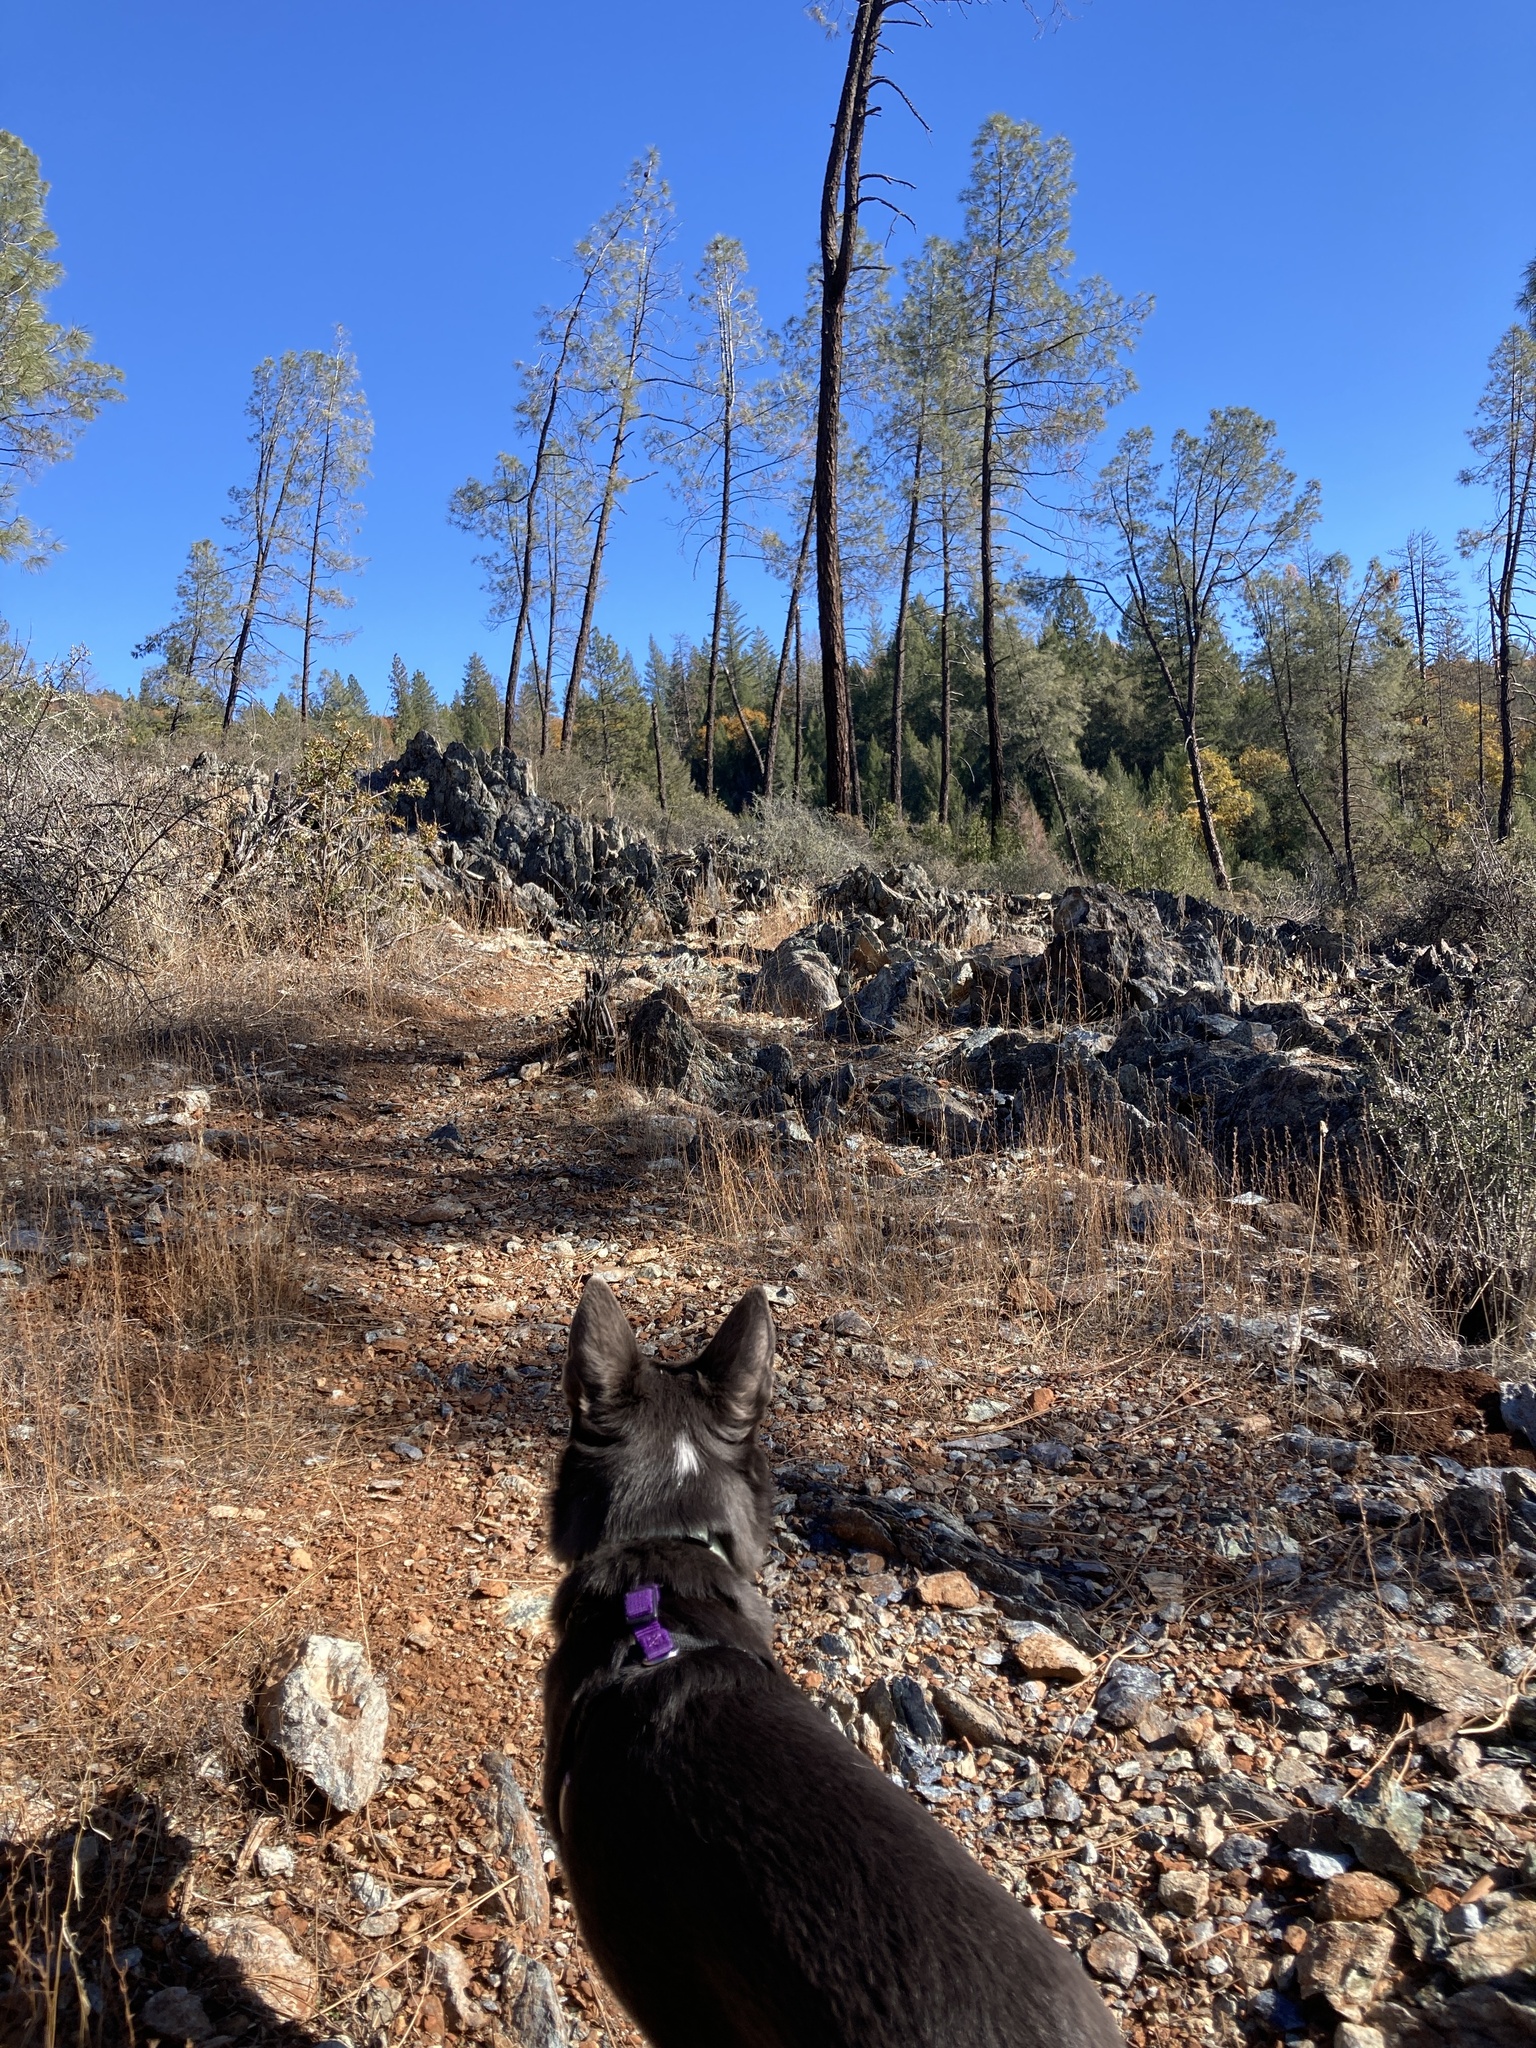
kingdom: Plantae
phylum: Tracheophyta
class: Pinopsida
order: Pinales
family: Pinaceae
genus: Pinus
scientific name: Pinus sabiniana
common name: Bull pine
